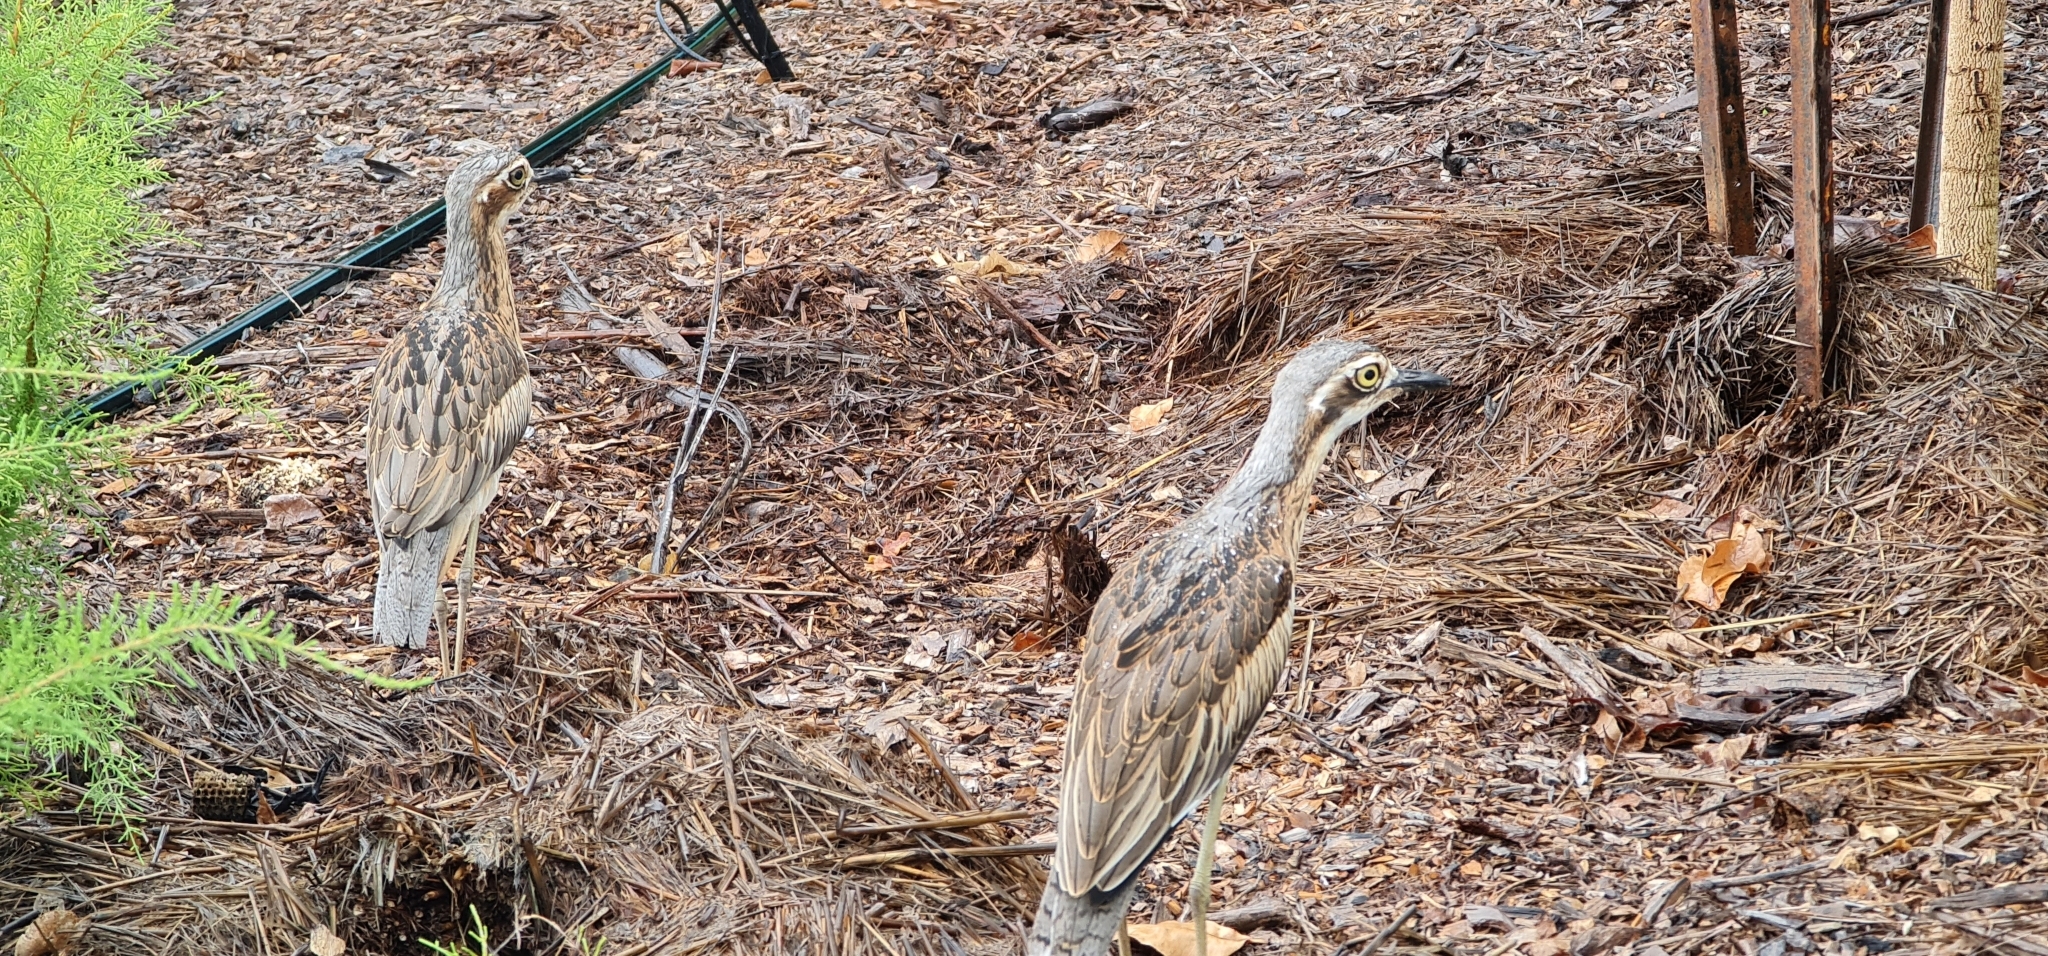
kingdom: Animalia
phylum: Chordata
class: Aves
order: Charadriiformes
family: Burhinidae
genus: Burhinus
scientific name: Burhinus grallarius
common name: Bush stone-curlew
